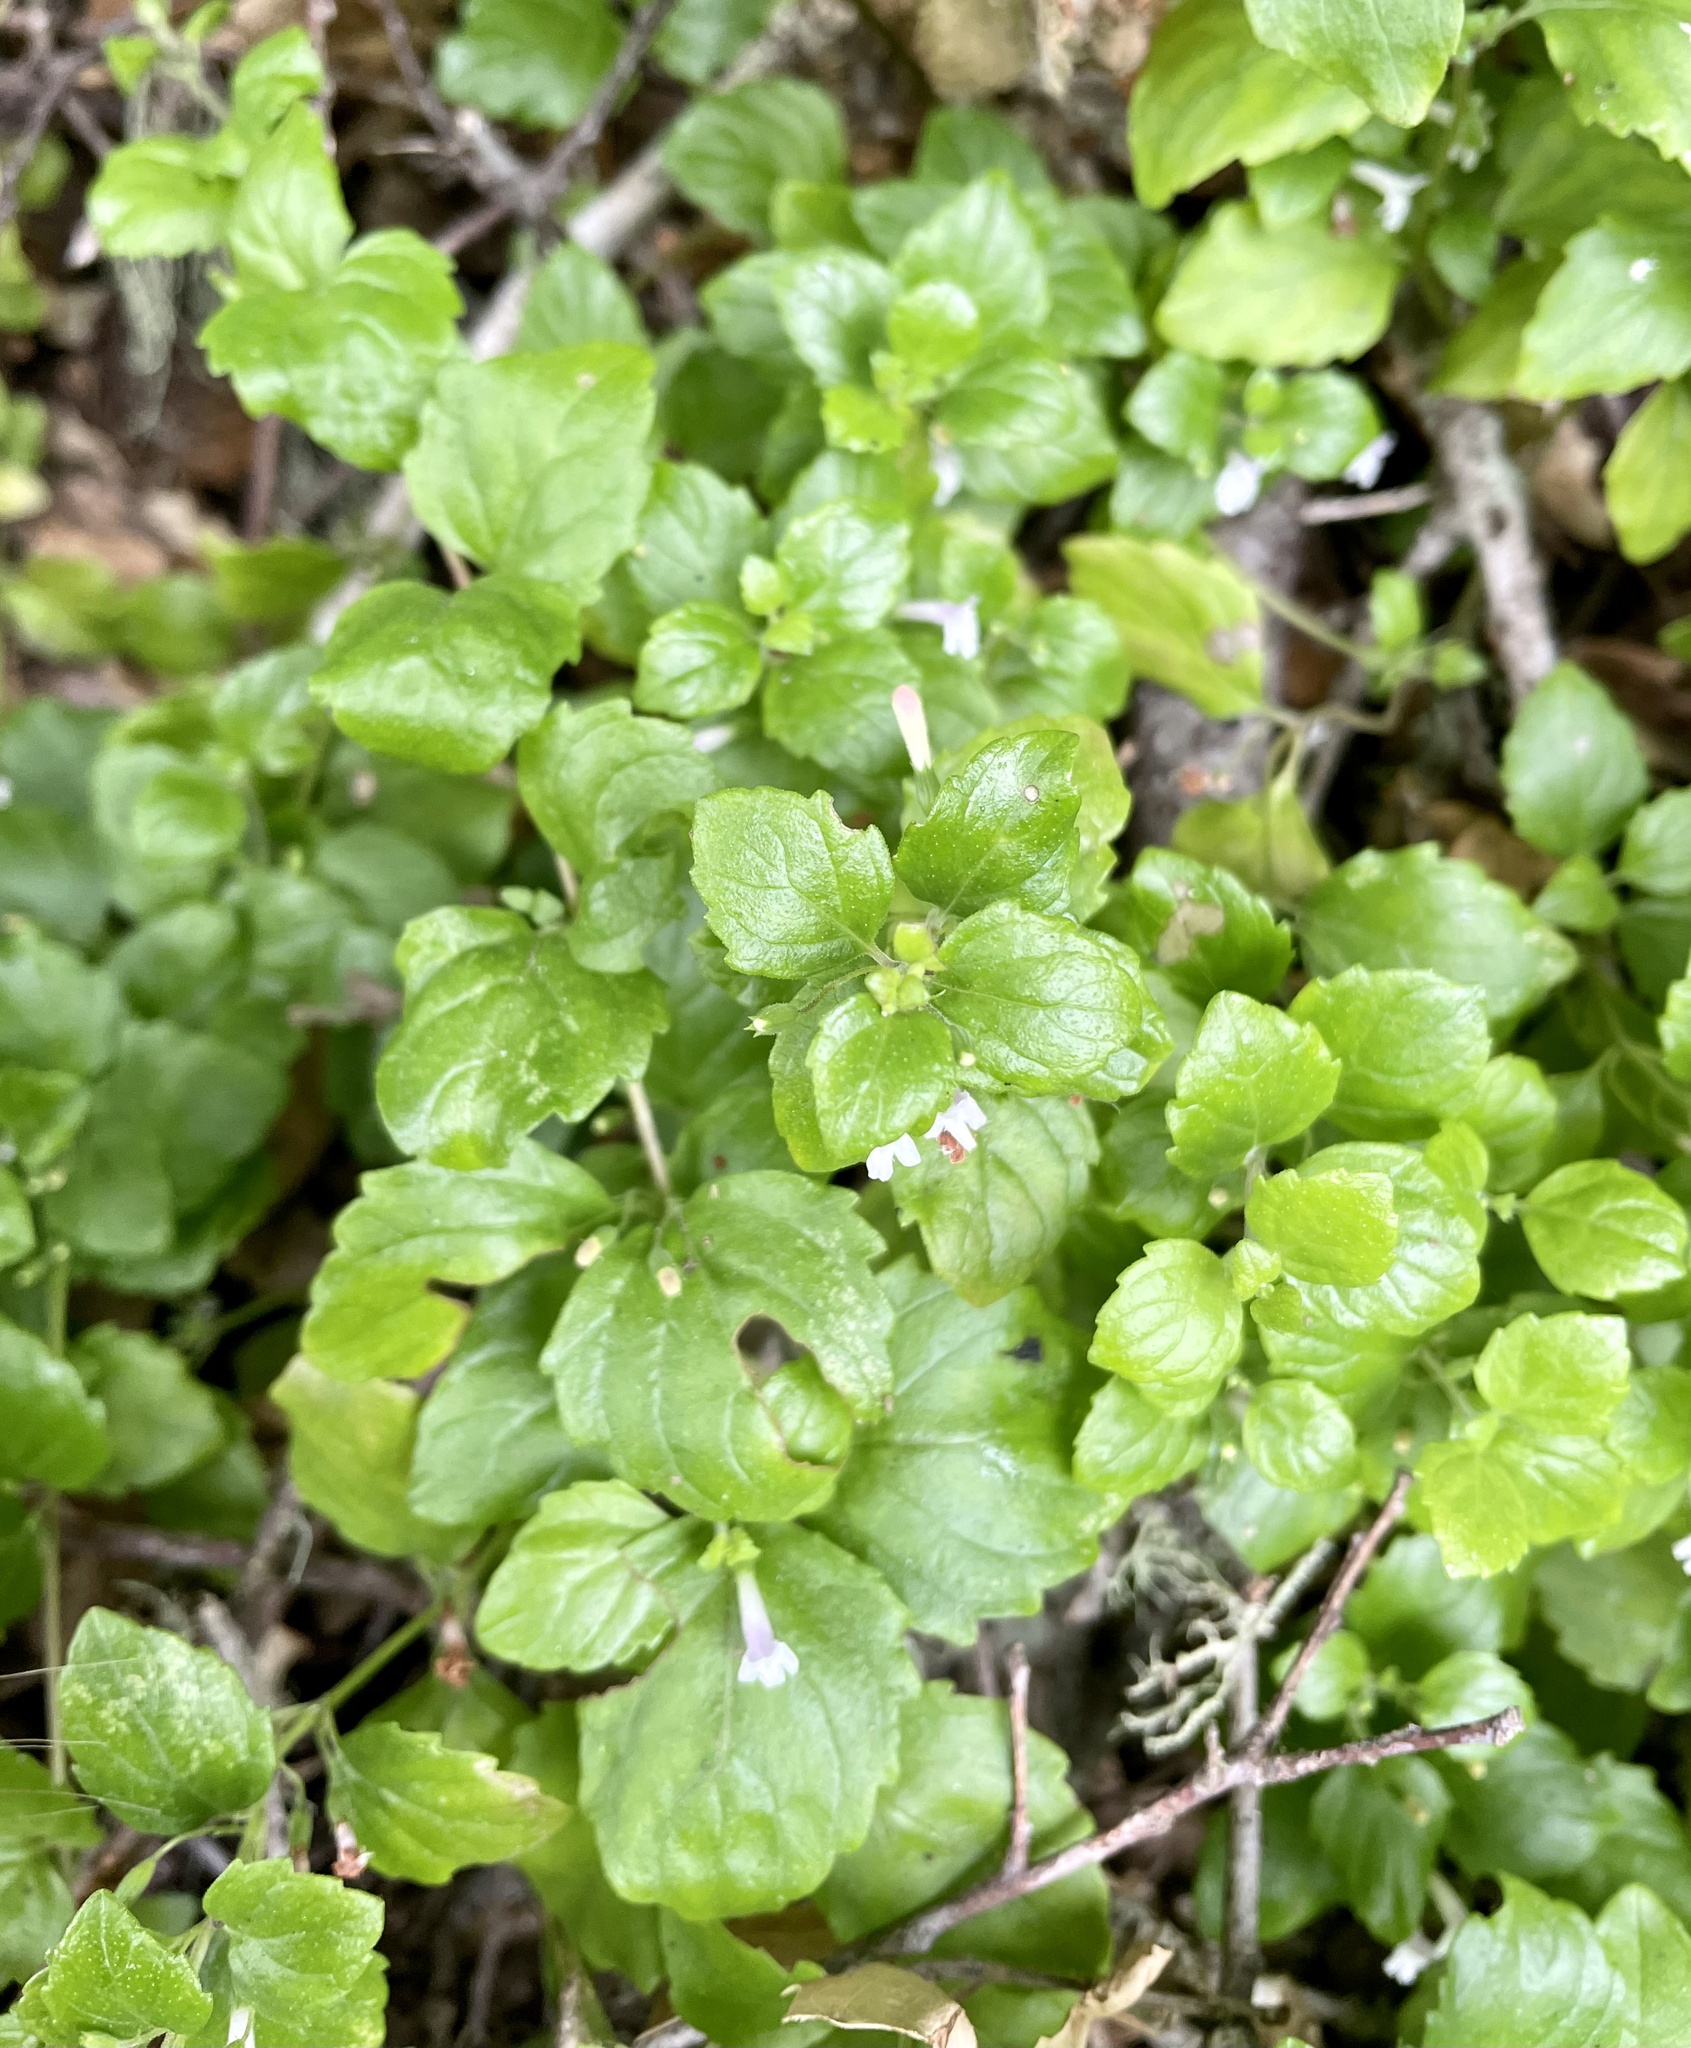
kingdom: Plantae
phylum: Tracheophyta
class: Magnoliopsida
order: Lamiales
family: Lamiaceae
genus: Micromeria
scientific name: Micromeria douglasii
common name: Yerba buena
